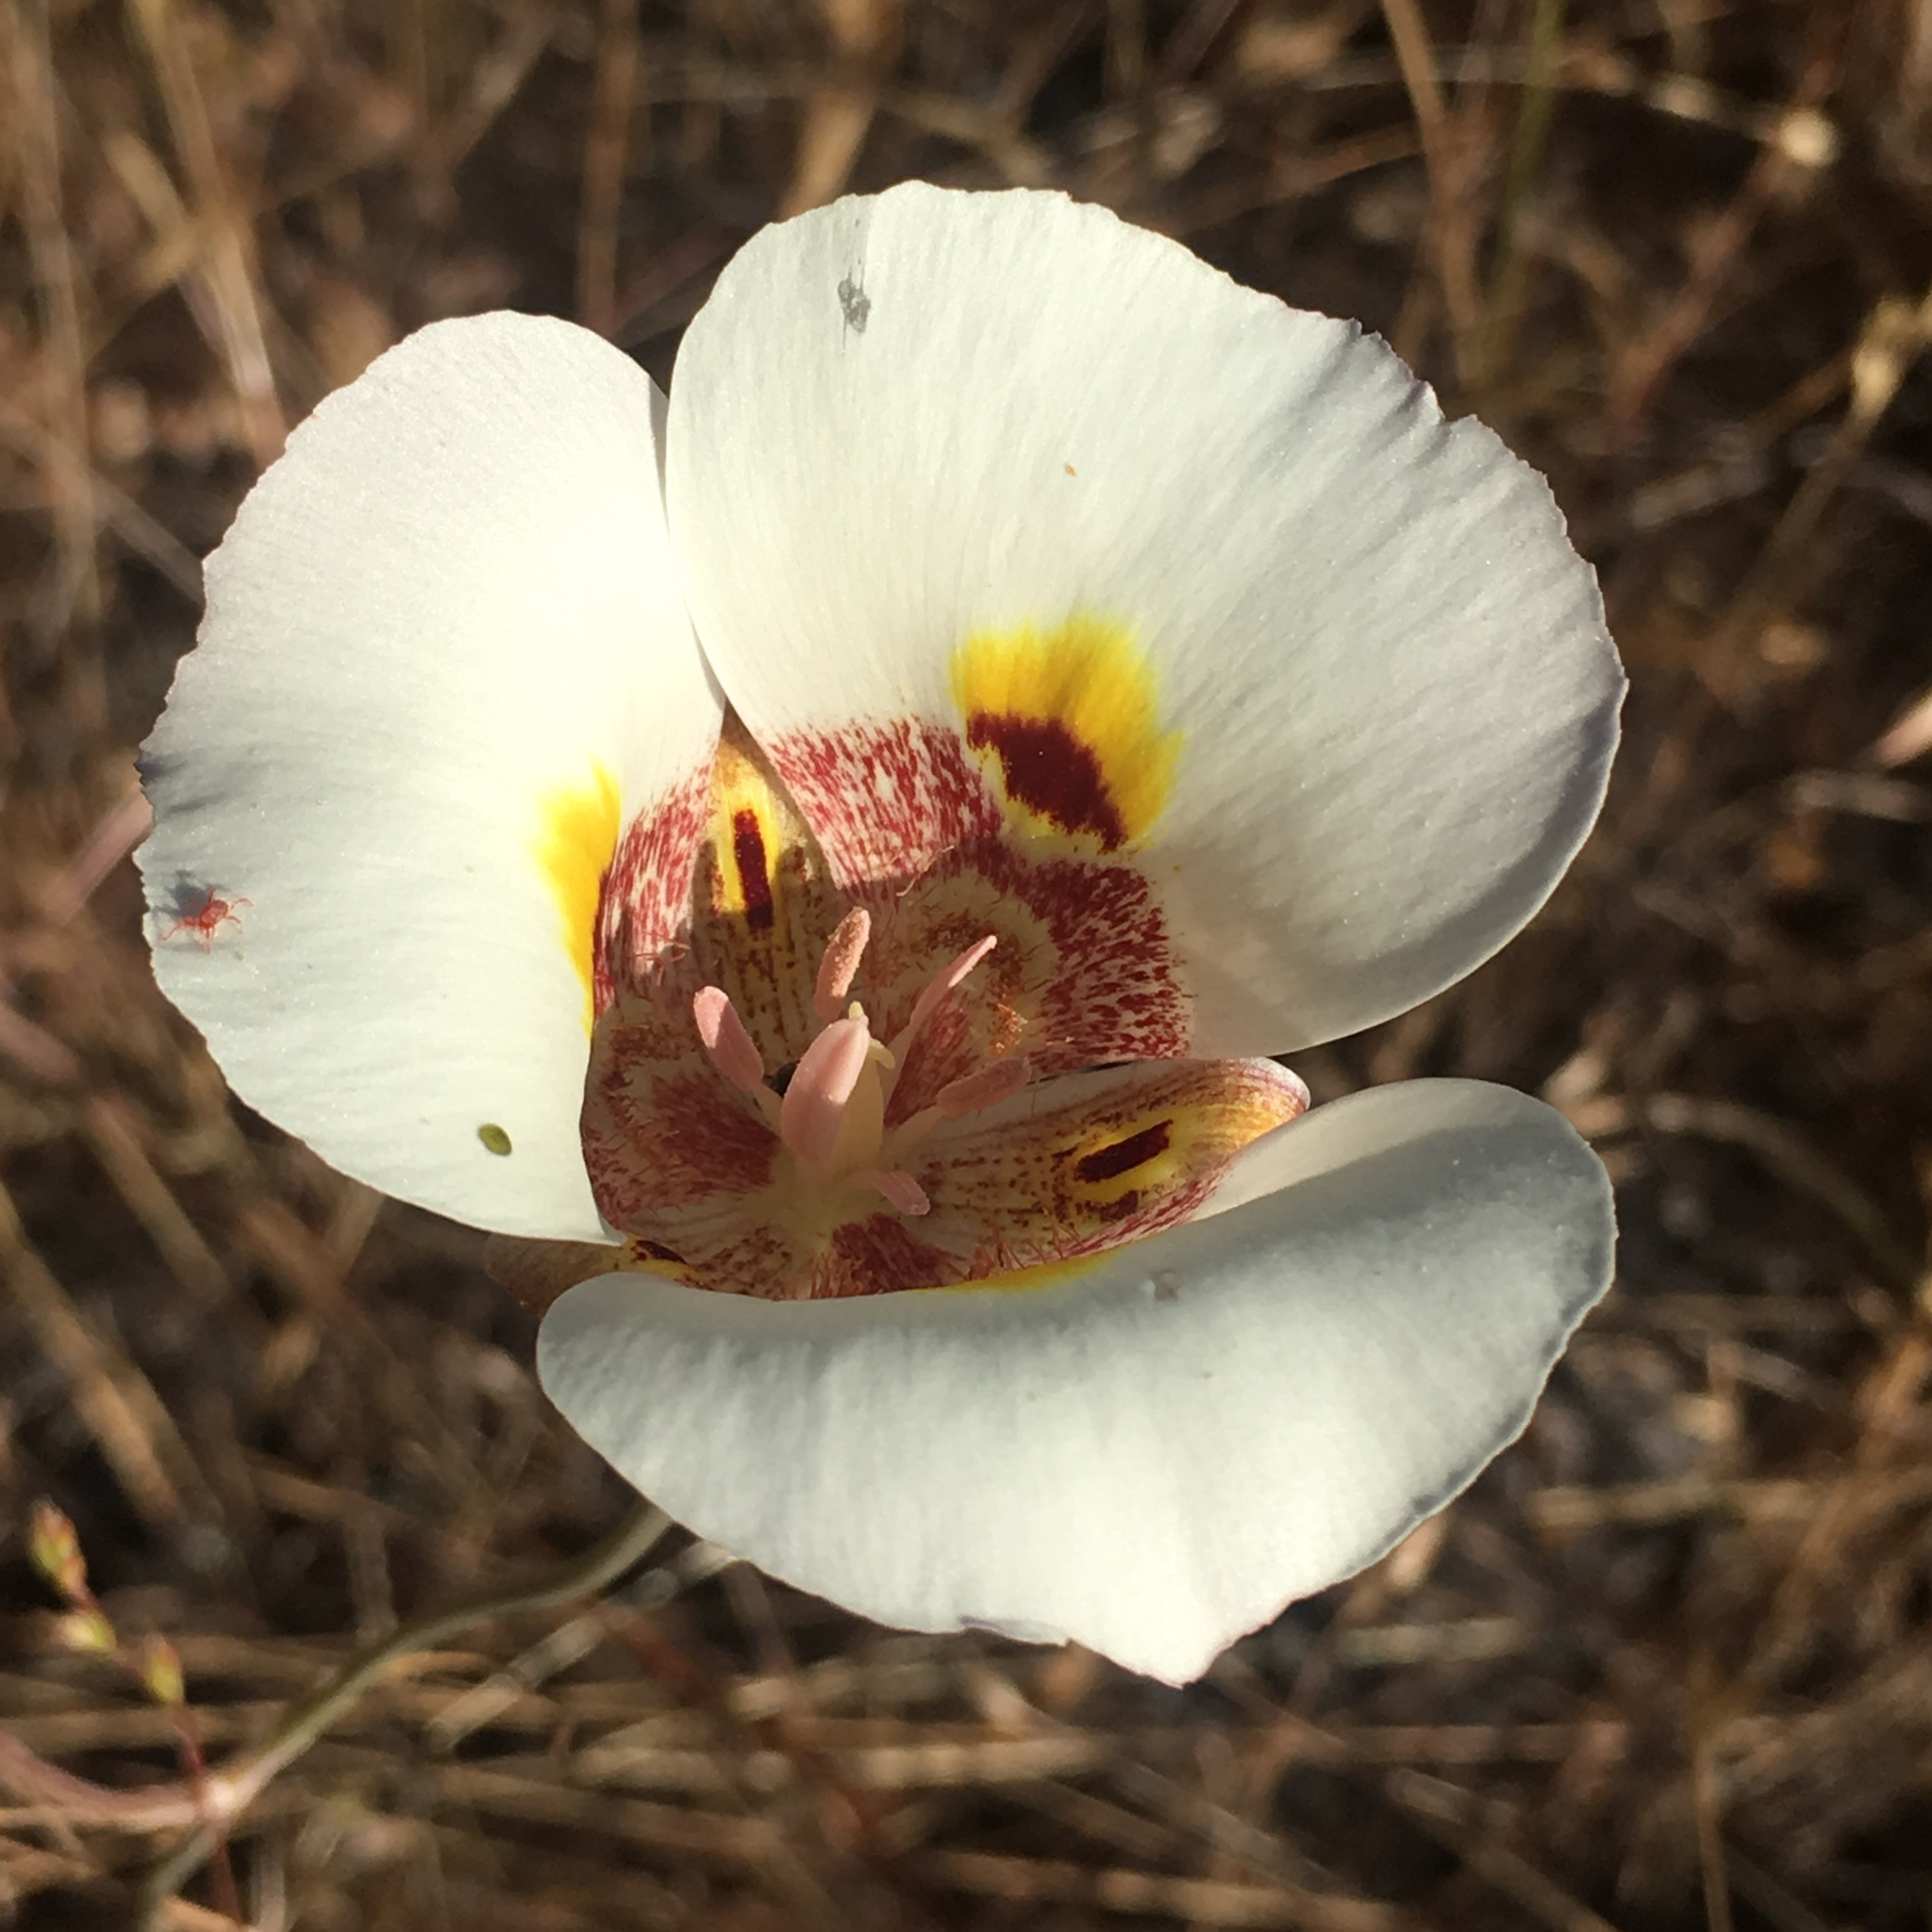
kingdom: Plantae
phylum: Tracheophyta
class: Liliopsida
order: Liliales
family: Liliaceae
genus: Calochortus
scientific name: Calochortus superbus
